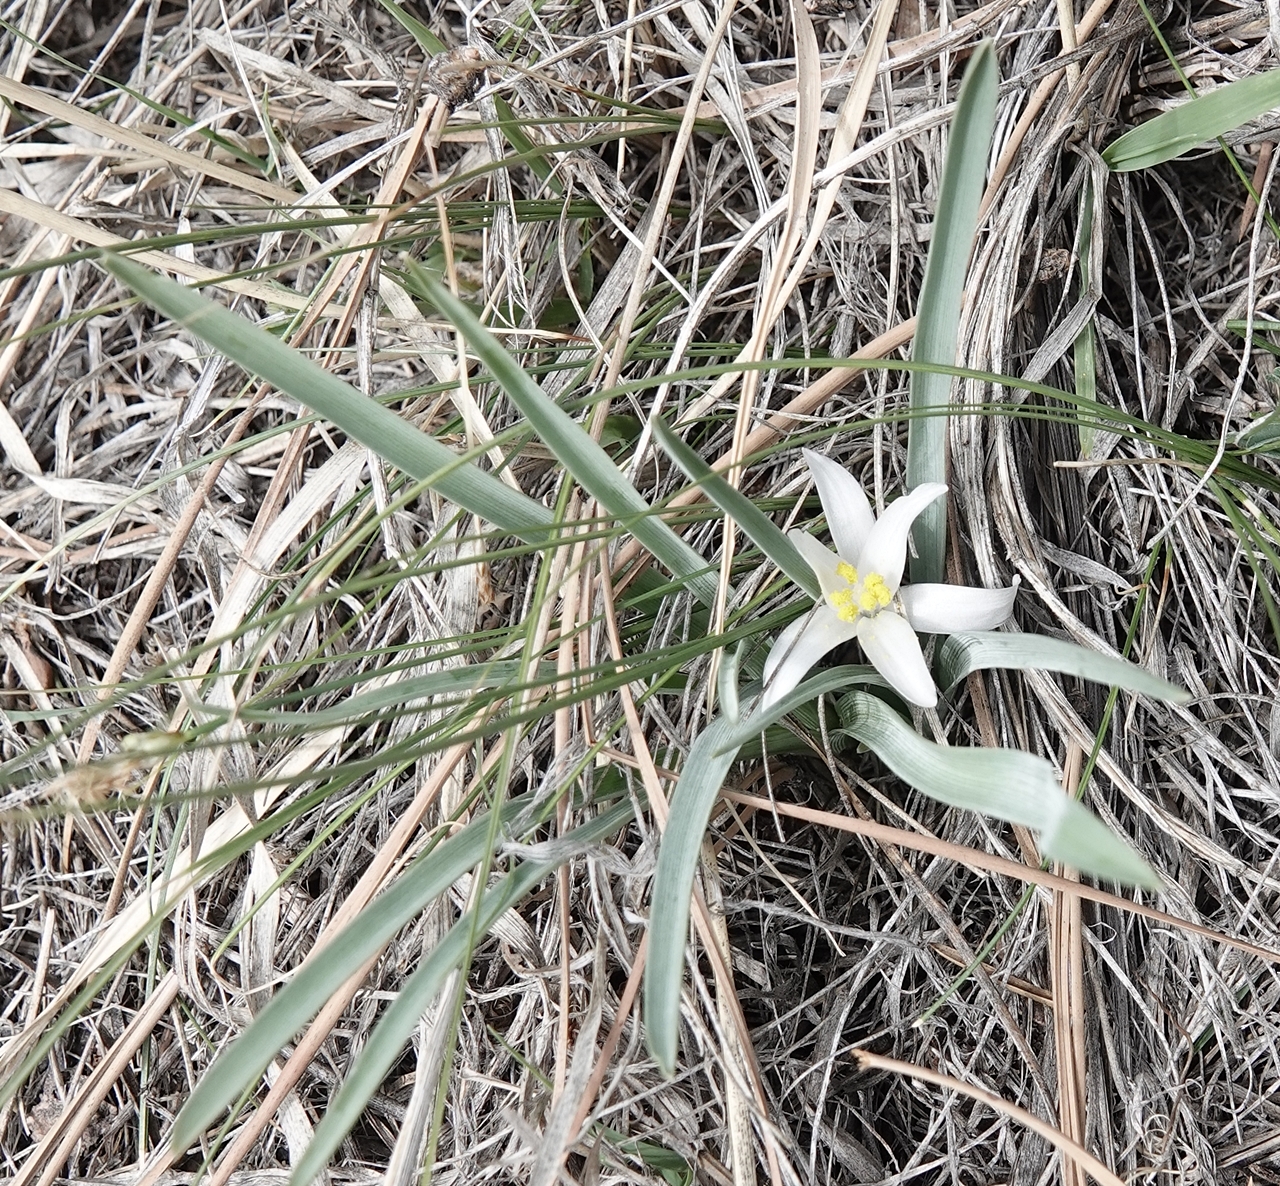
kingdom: Plantae
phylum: Tracheophyta
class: Liliopsida
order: Asparagales
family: Asparagaceae
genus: Leucocrinum
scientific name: Leucocrinum montanum
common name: Mountain-lily
